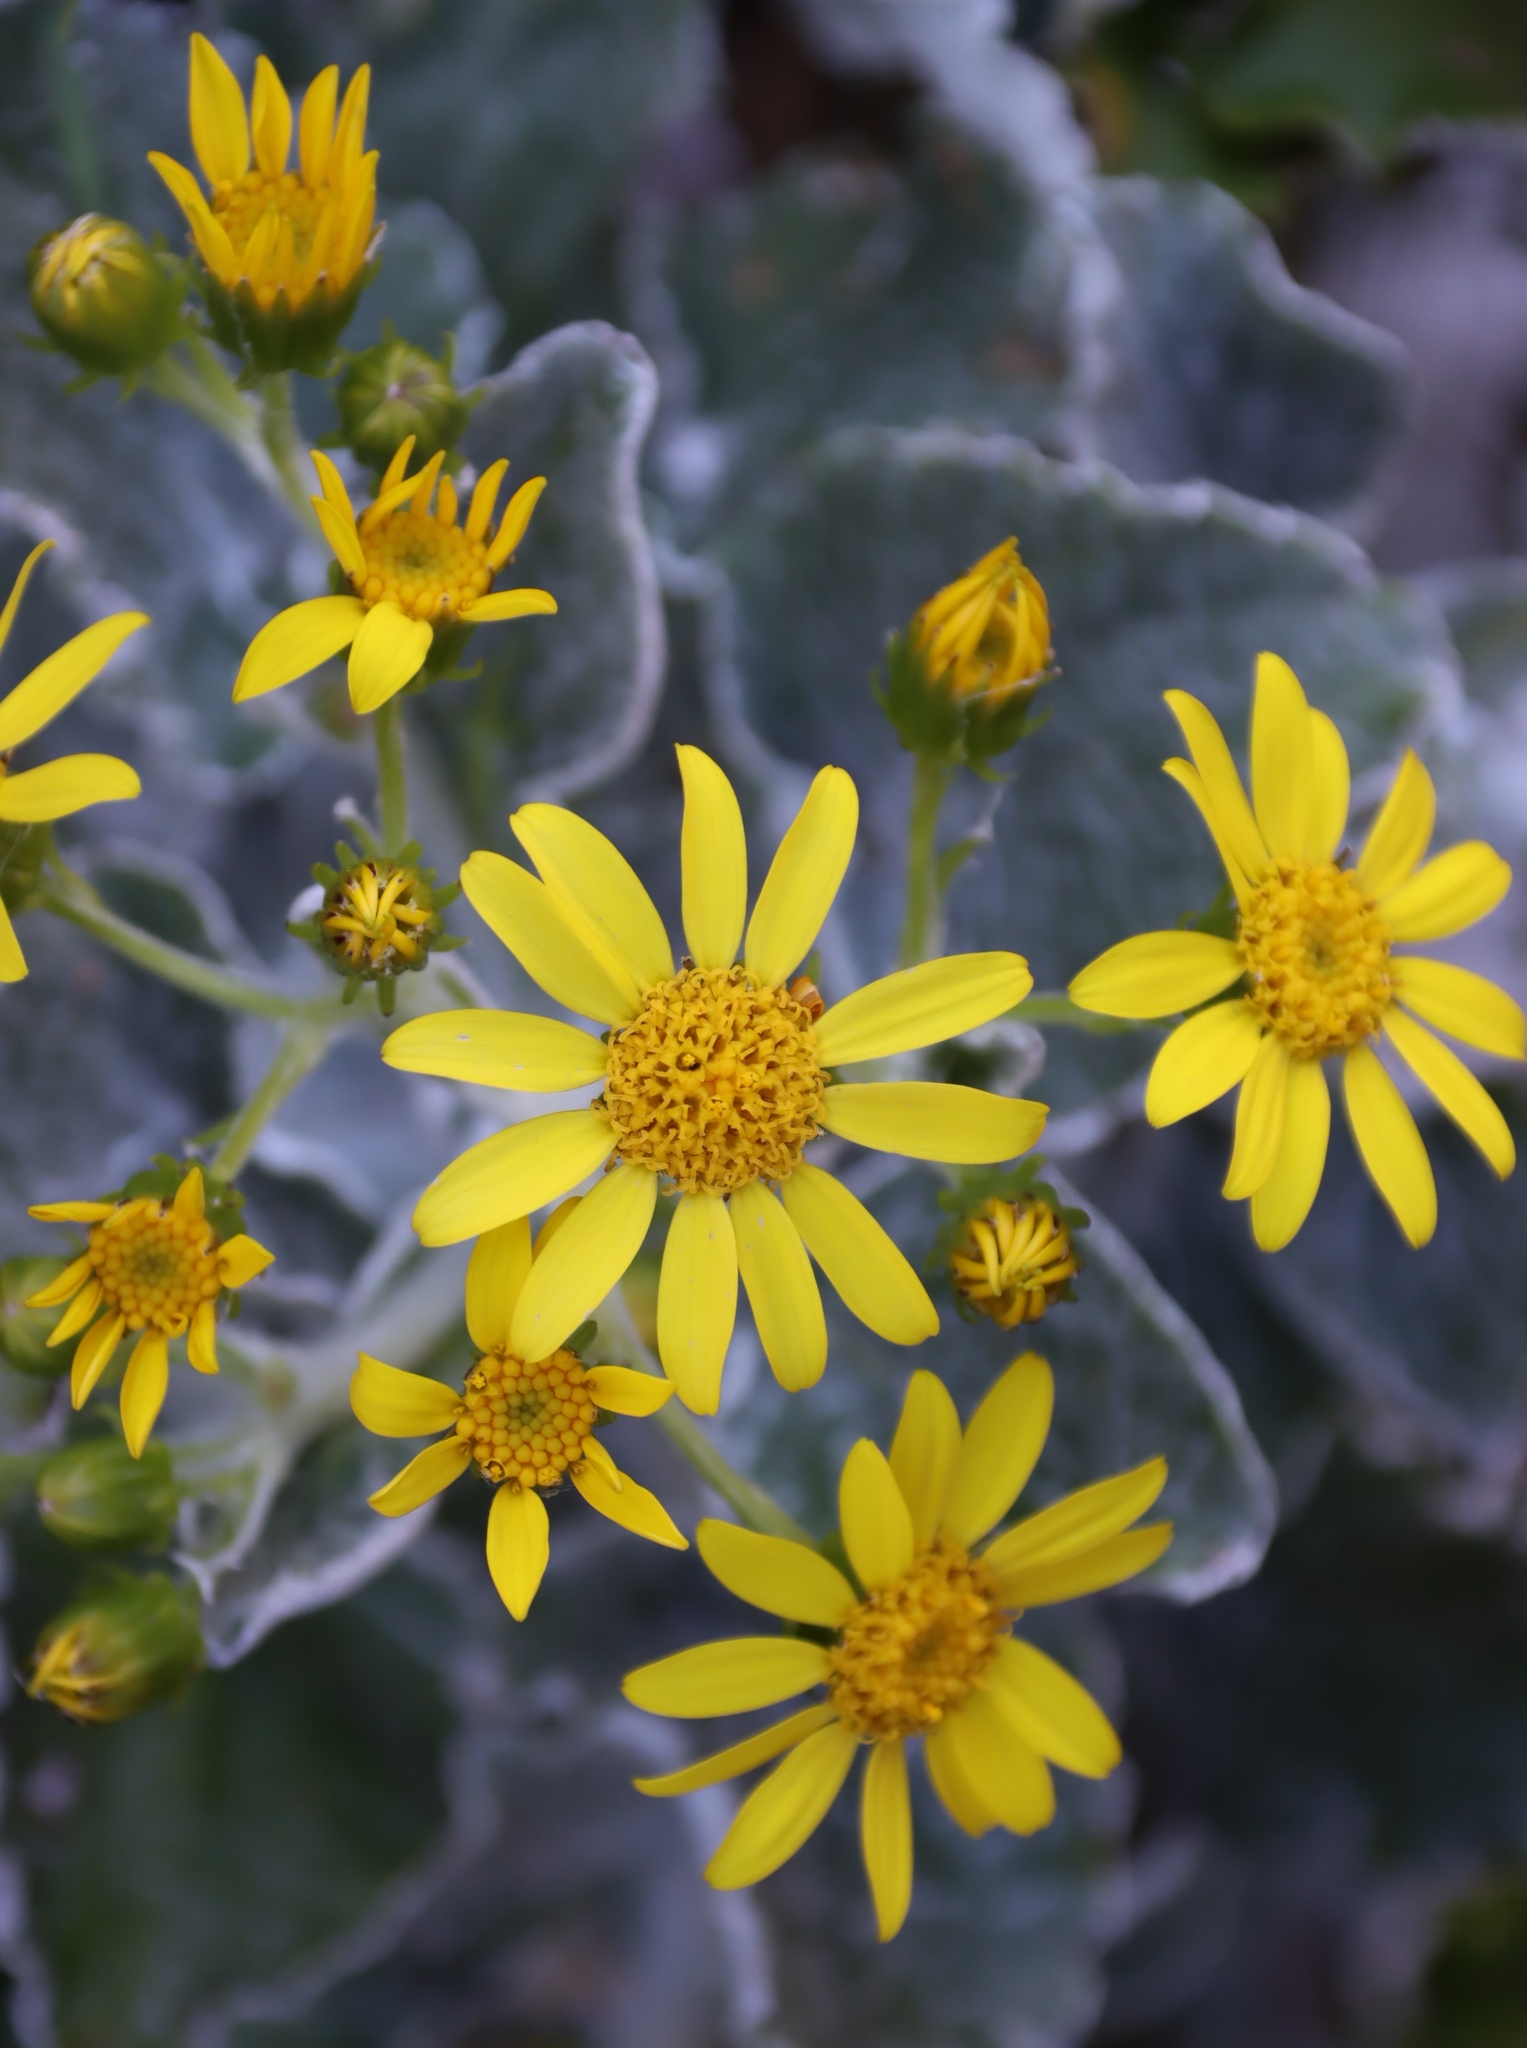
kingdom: Plantae
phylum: Tracheophyta
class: Magnoliopsida
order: Asterales
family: Asteraceae
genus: Senecio
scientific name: Senecio verbascifolius
